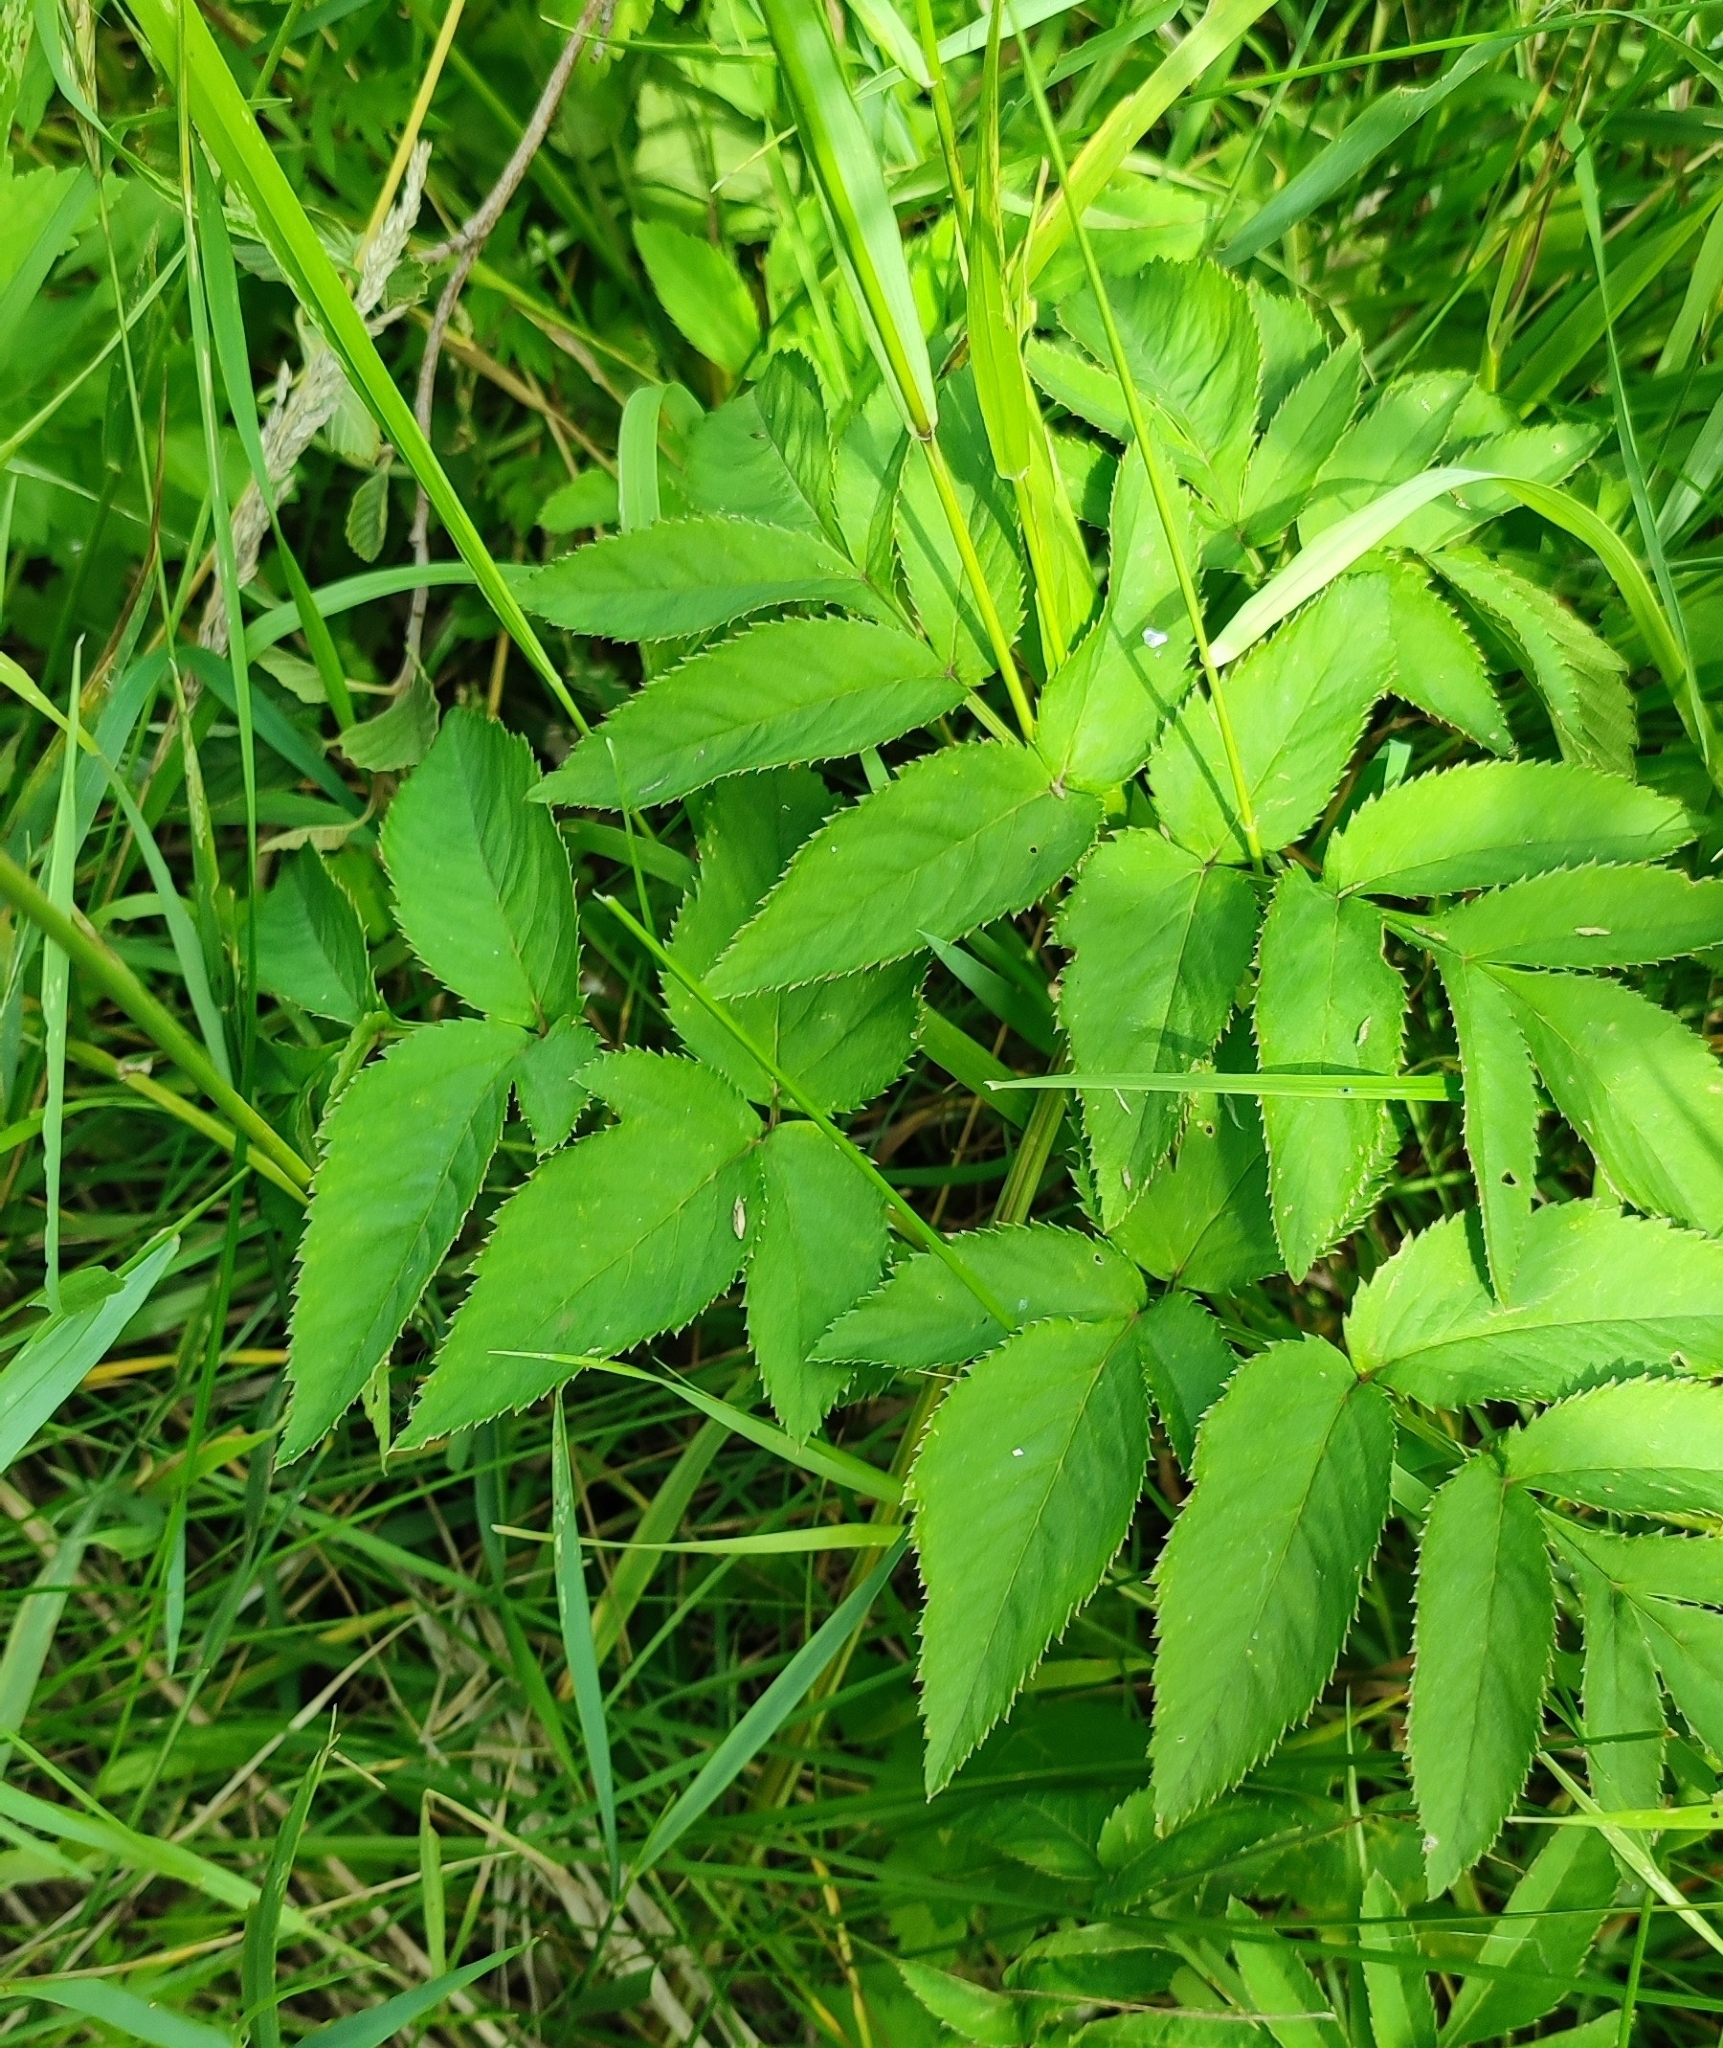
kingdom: Plantae
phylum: Tracheophyta
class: Magnoliopsida
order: Apiales
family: Apiaceae
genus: Angelica
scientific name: Angelica sylvestris
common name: Wild angelica
